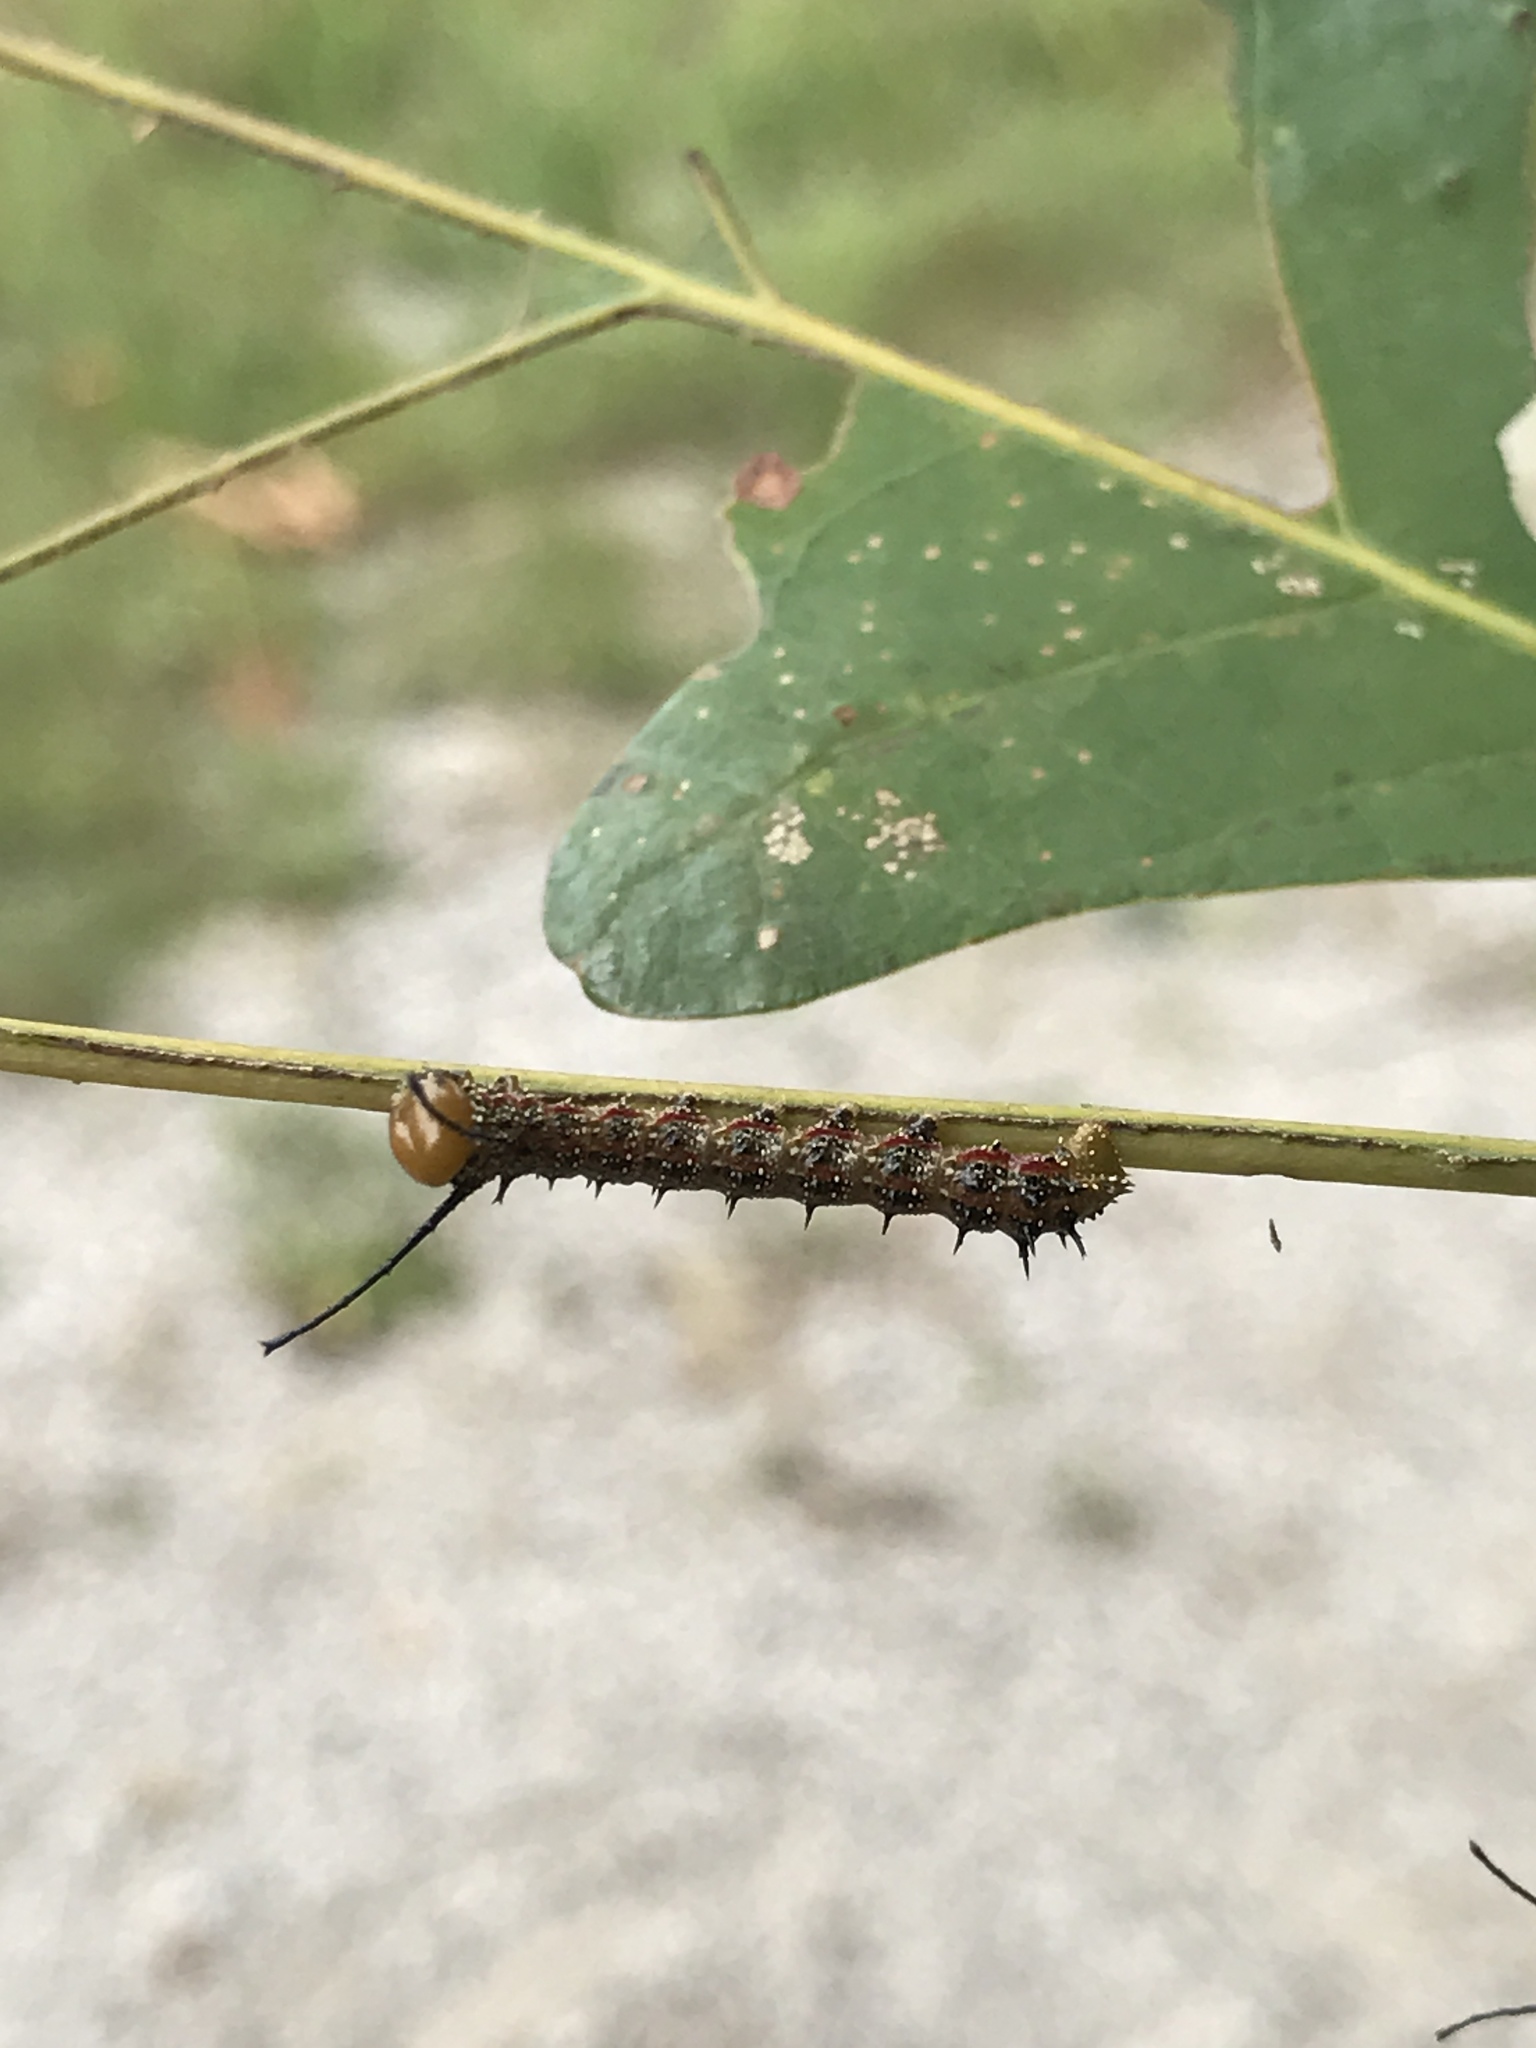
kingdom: Animalia
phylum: Arthropoda
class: Insecta
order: Lepidoptera
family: Saturniidae
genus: Anisota
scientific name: Anisota virginiensis
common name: Pink striped oakworm moth
